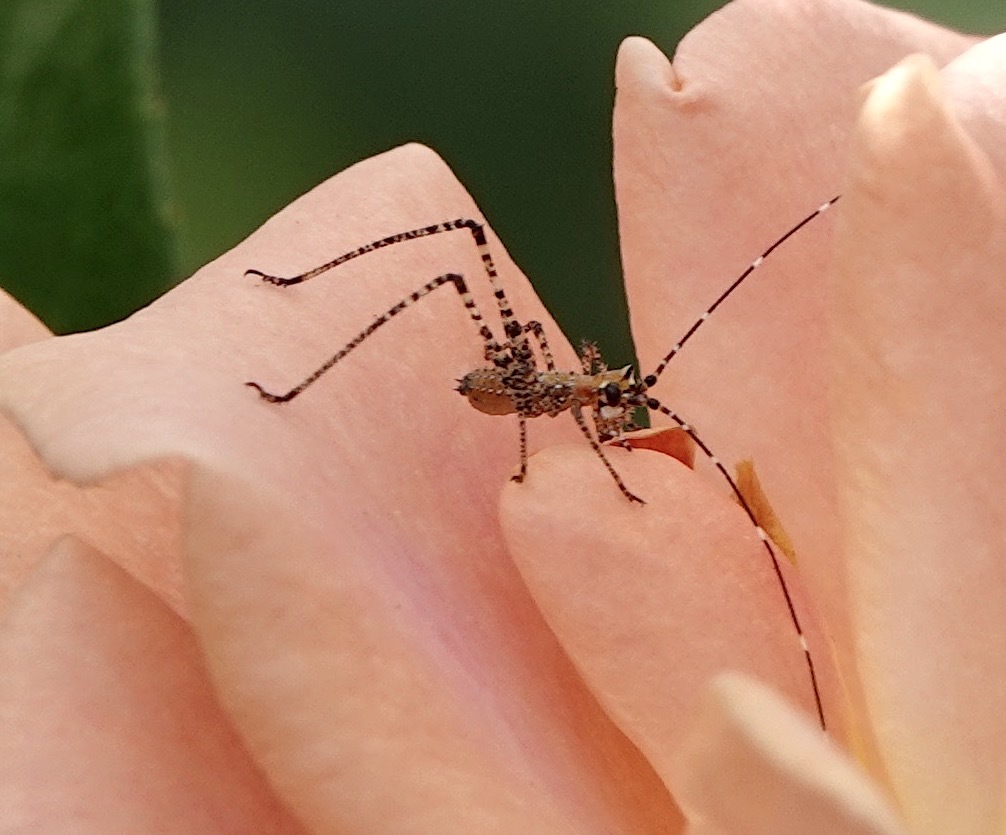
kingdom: Animalia
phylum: Arthropoda
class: Insecta
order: Orthoptera
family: Tettigoniidae
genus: Scudderia
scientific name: Scudderia
